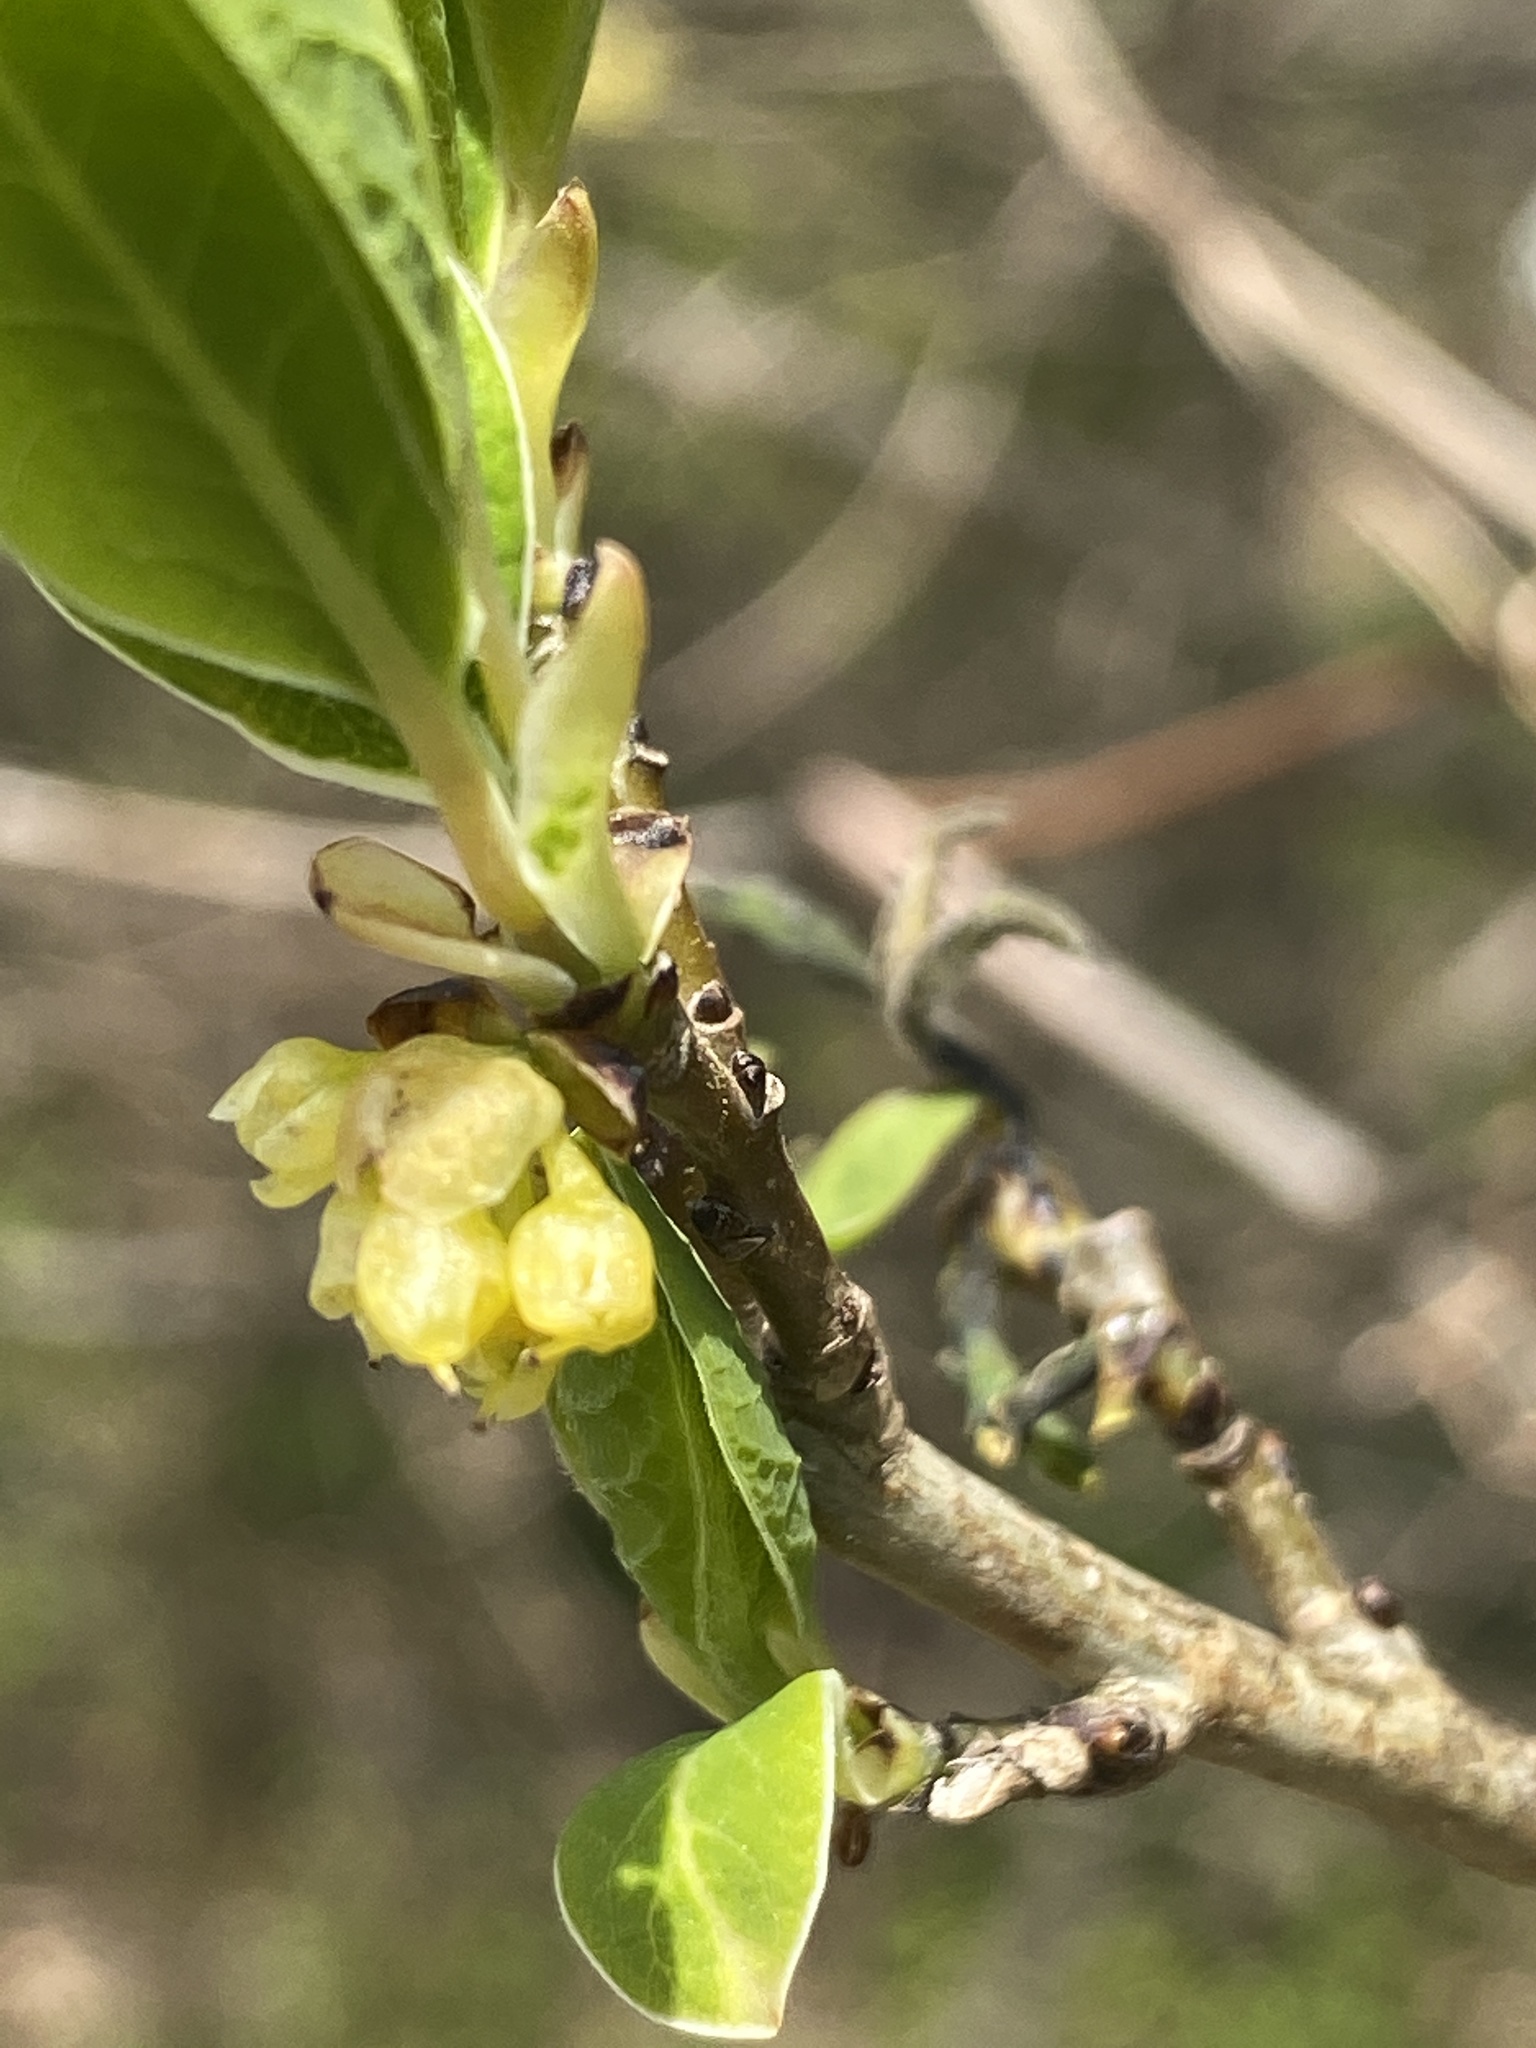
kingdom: Plantae
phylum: Tracheophyta
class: Magnoliopsida
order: Laurales
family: Lauraceae
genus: Lindera
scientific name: Lindera benzoin
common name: Spicebush
